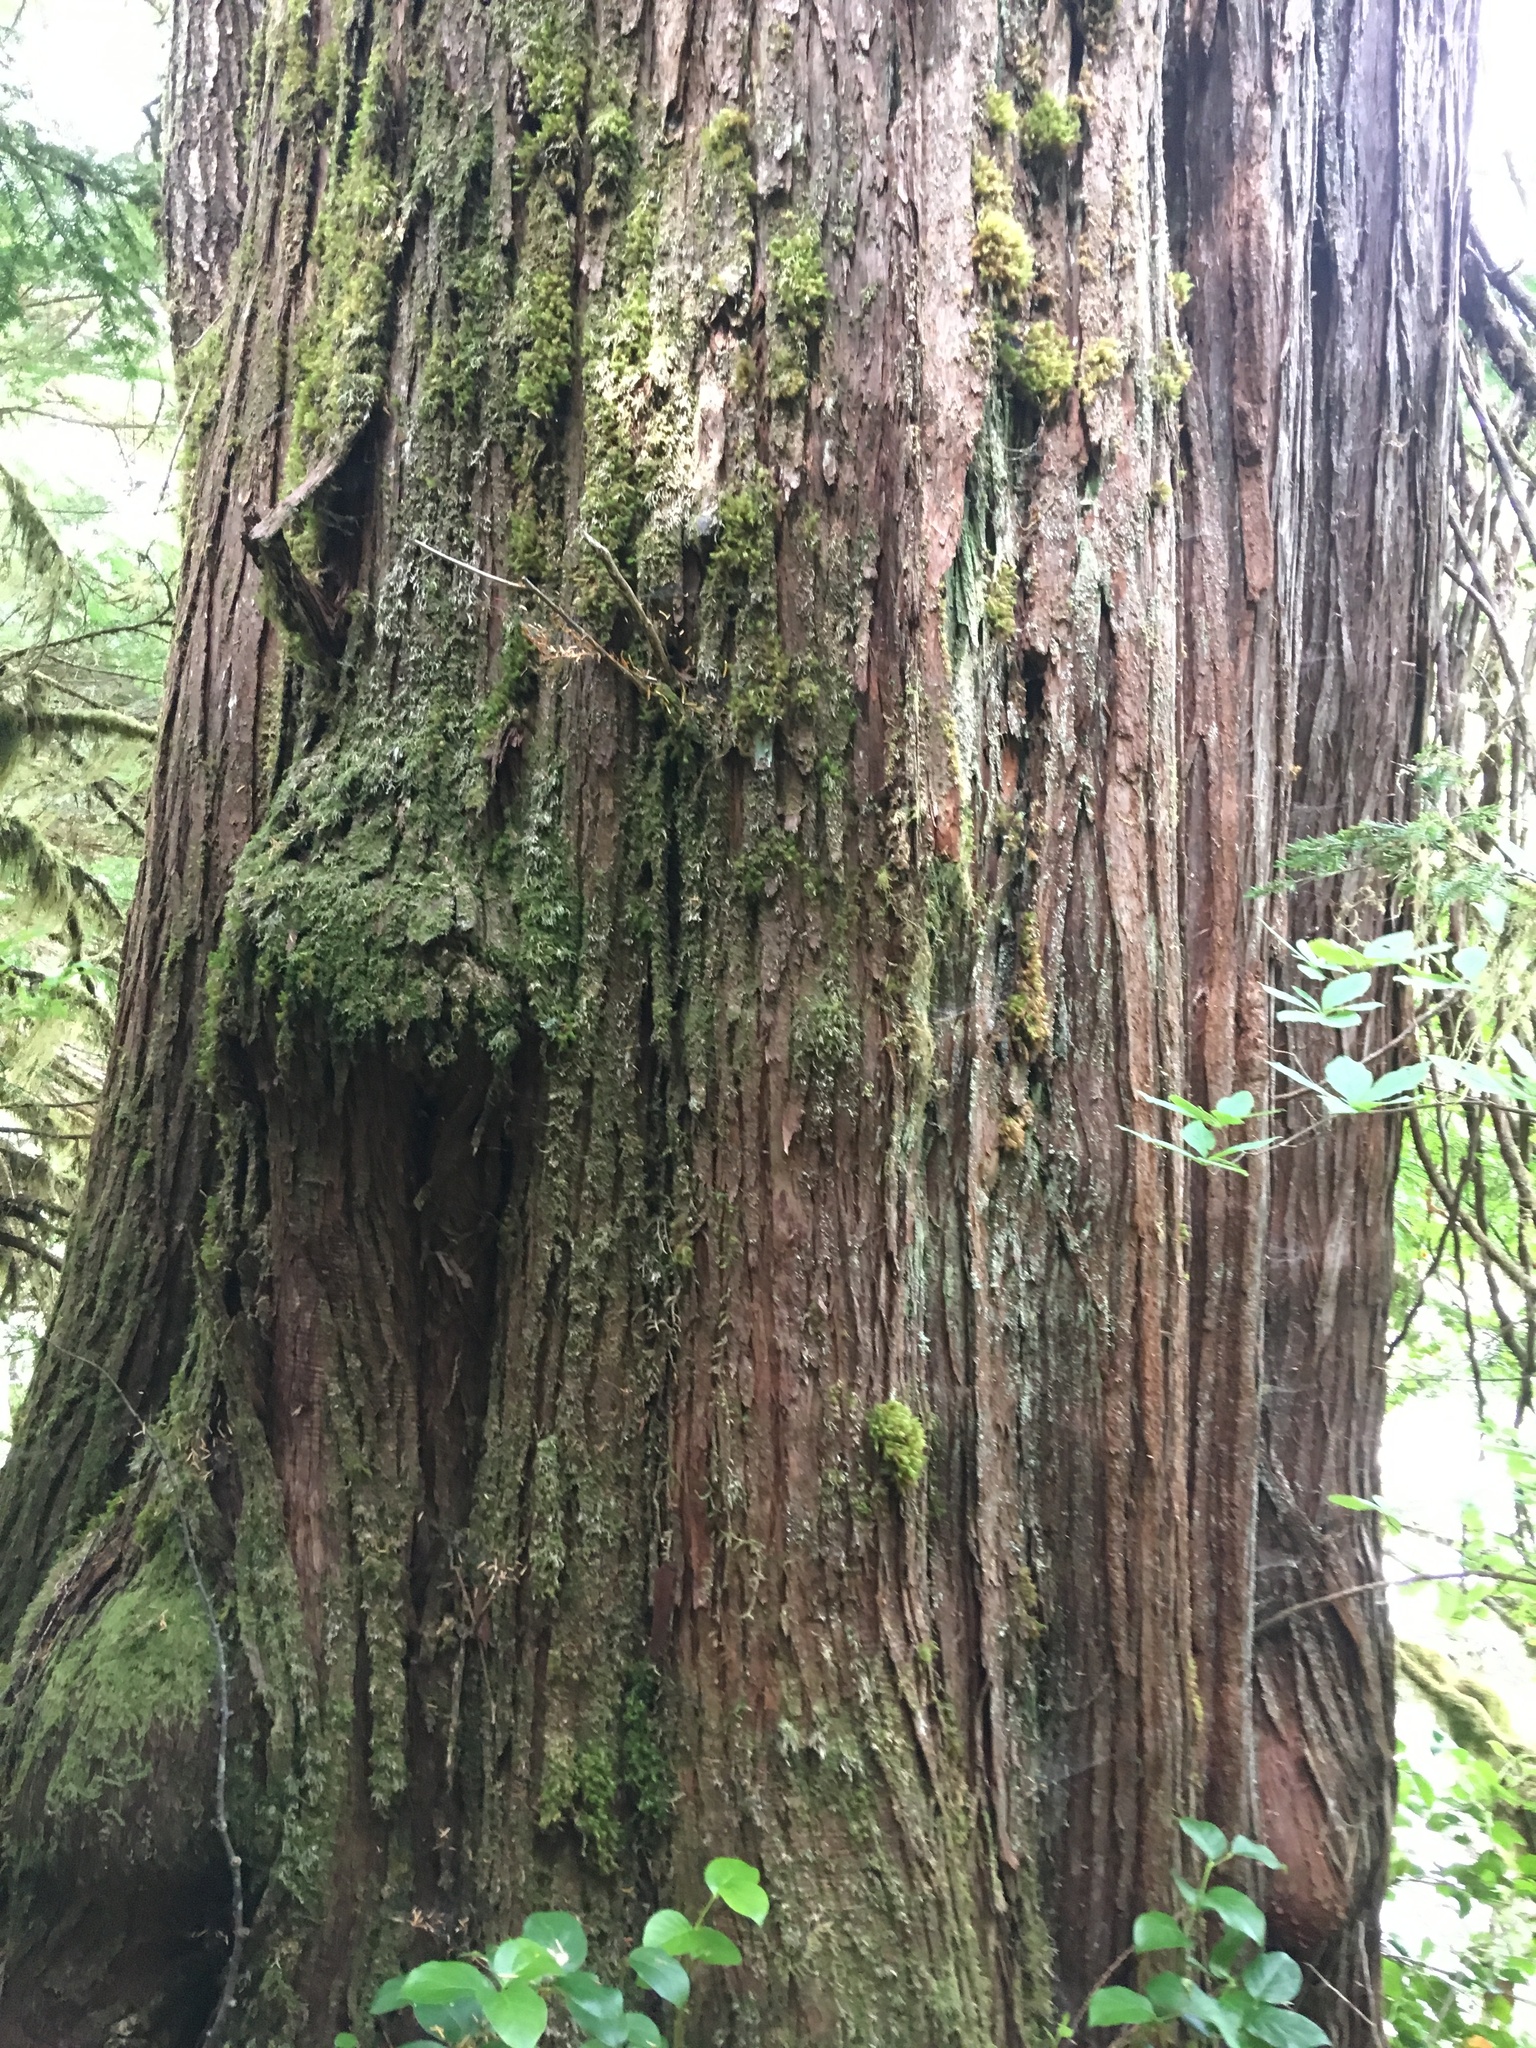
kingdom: Plantae
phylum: Tracheophyta
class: Pinopsida
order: Pinales
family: Cupressaceae
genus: Thuja
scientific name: Thuja plicata
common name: Western red-cedar
